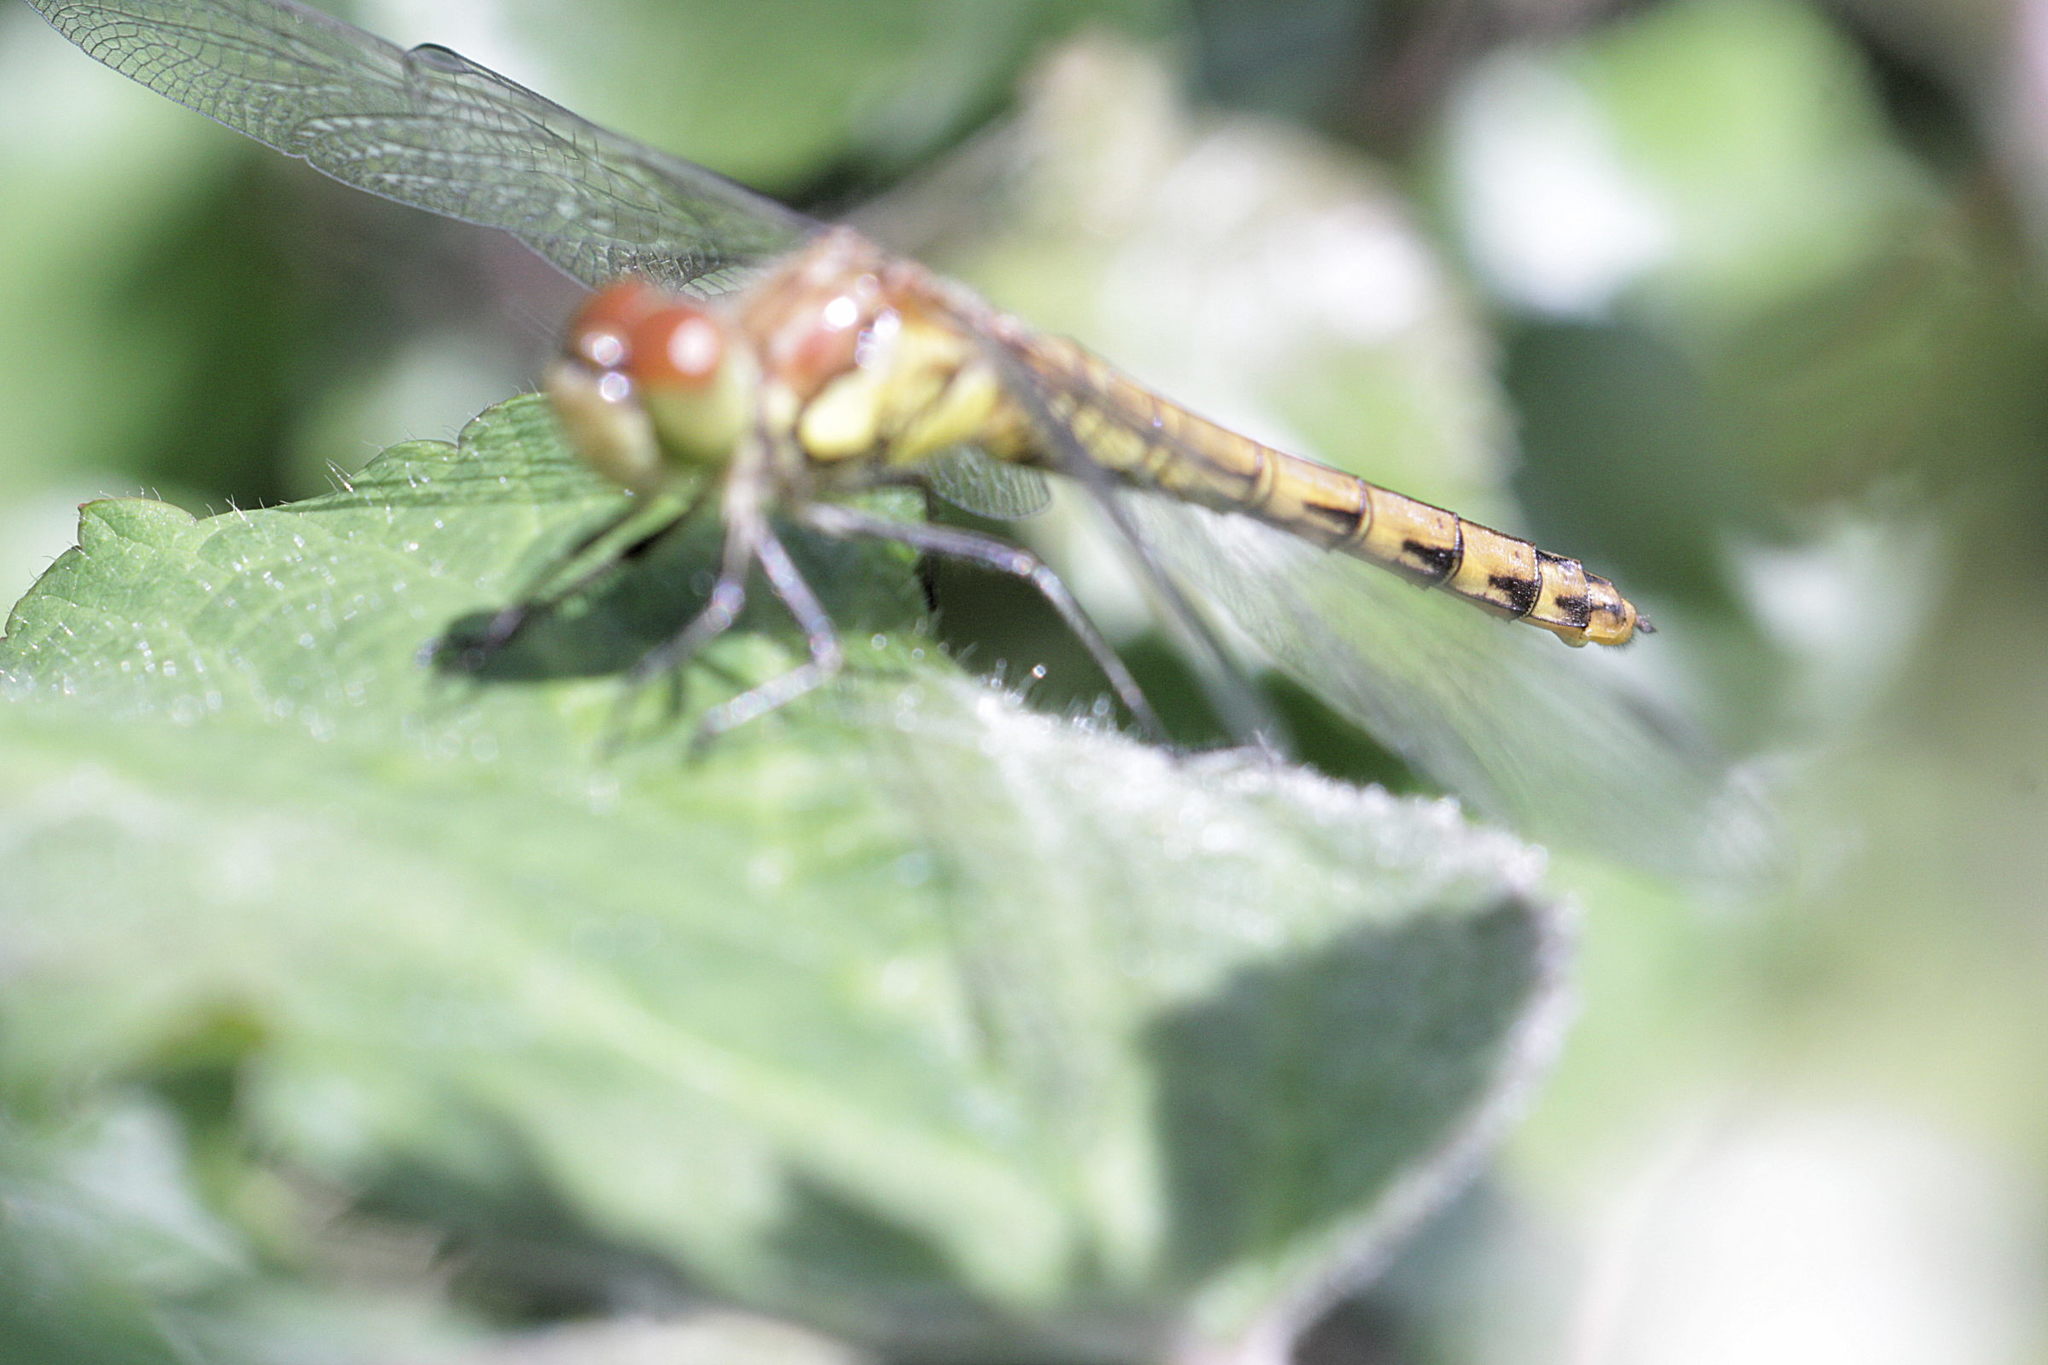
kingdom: Animalia
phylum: Arthropoda
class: Insecta
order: Odonata
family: Libellulidae
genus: Sympetrum
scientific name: Sympetrum striolatum
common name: Common darter
